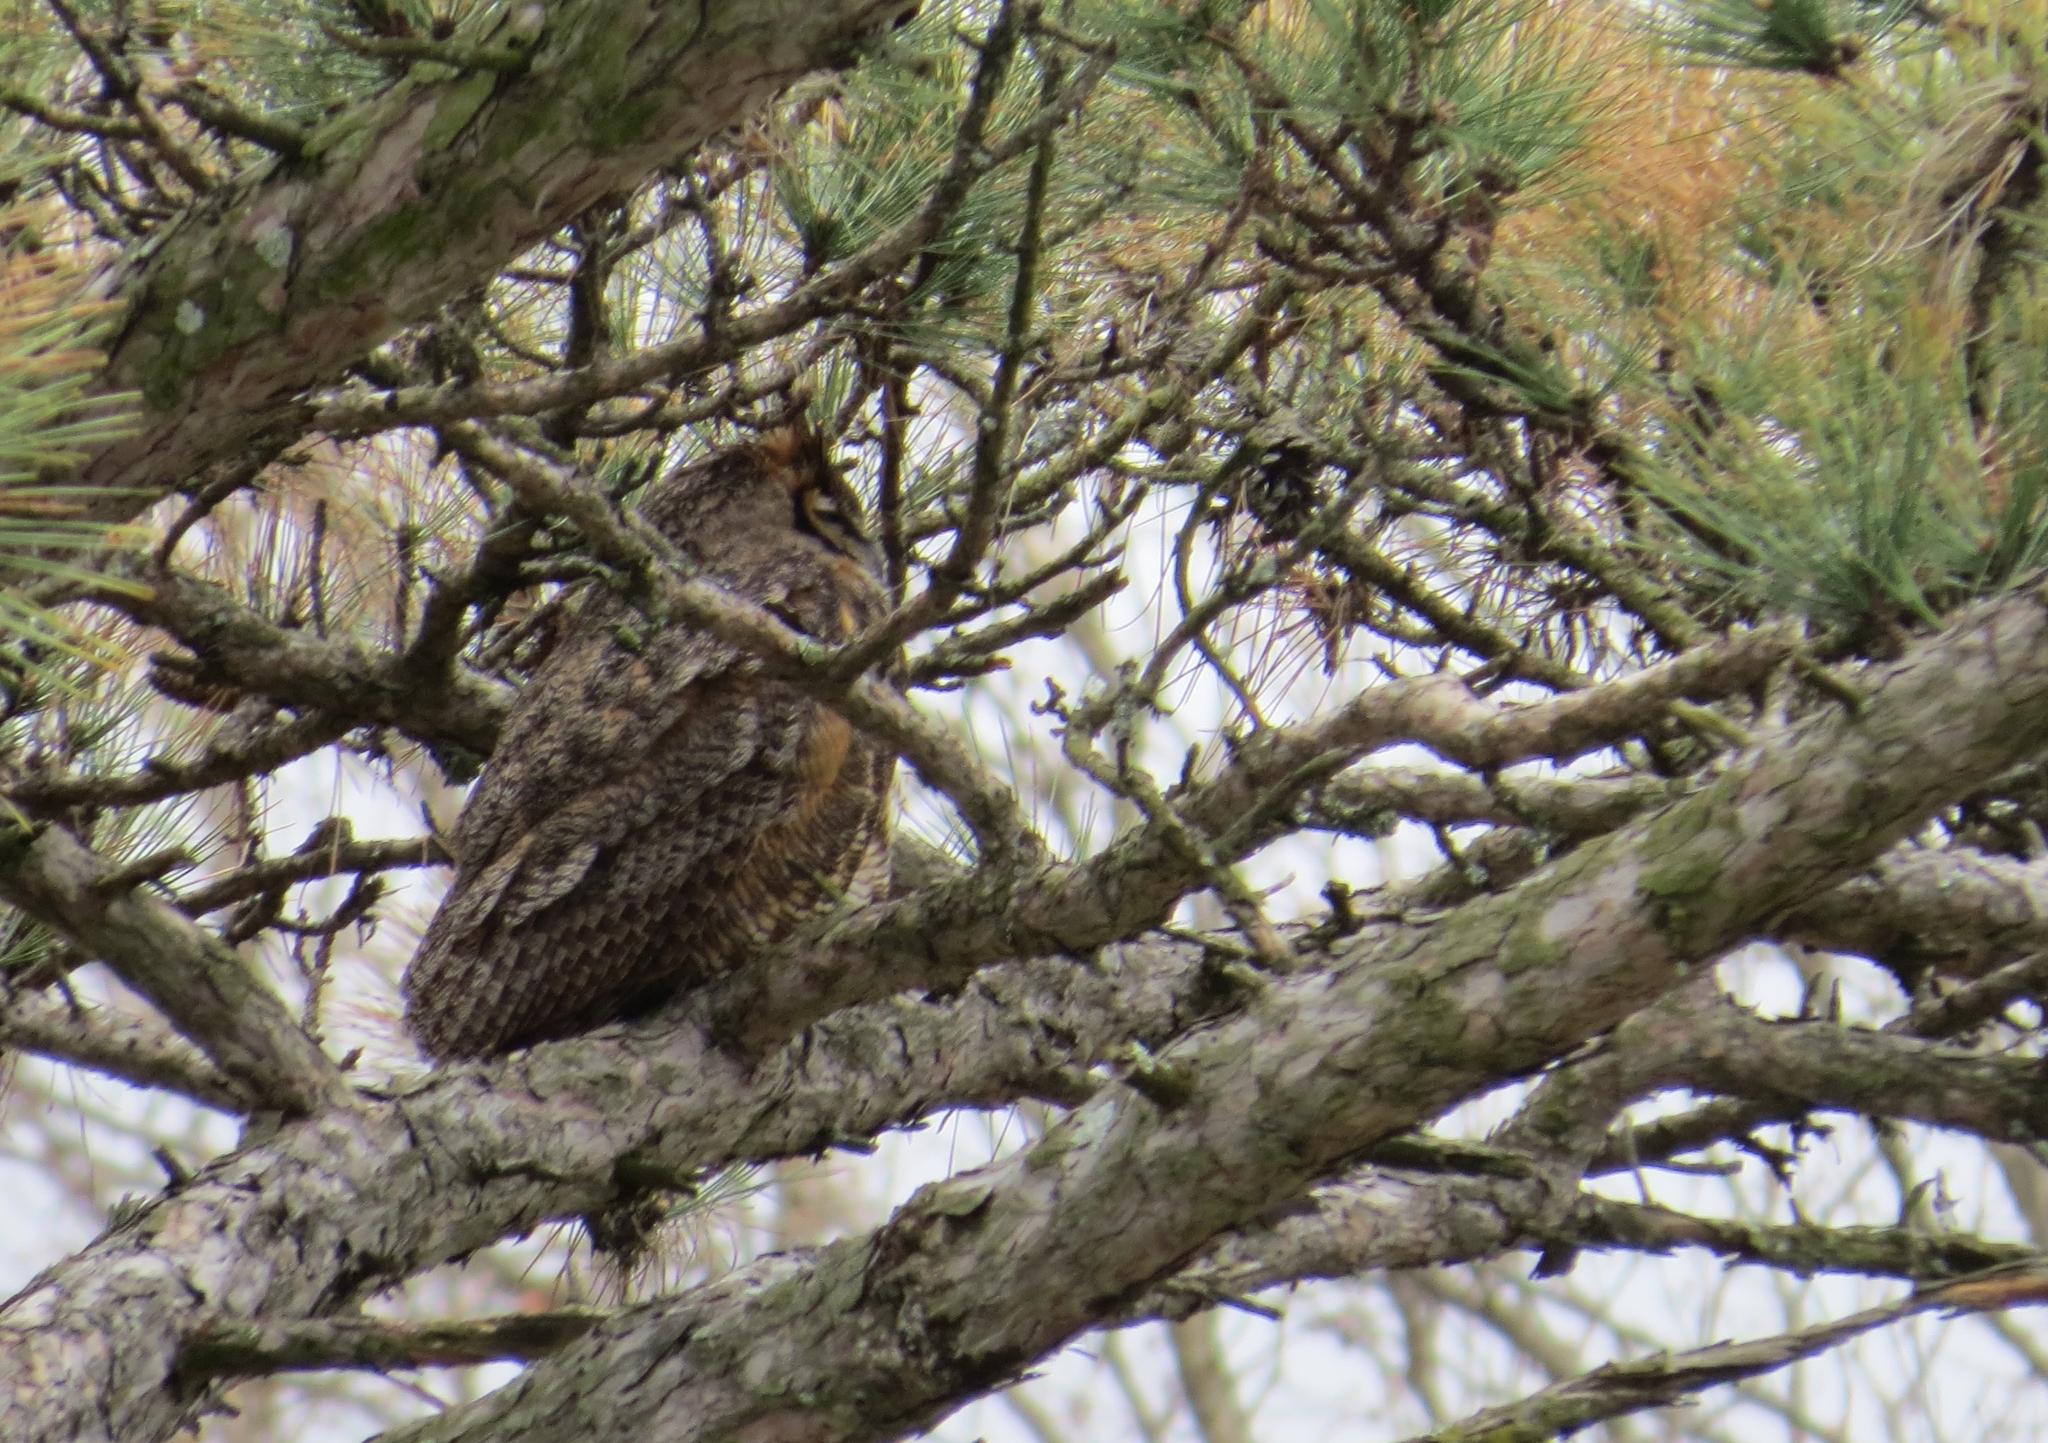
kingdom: Animalia
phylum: Chordata
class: Aves
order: Strigiformes
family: Strigidae
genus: Bubo
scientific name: Bubo virginianus
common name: Great horned owl
